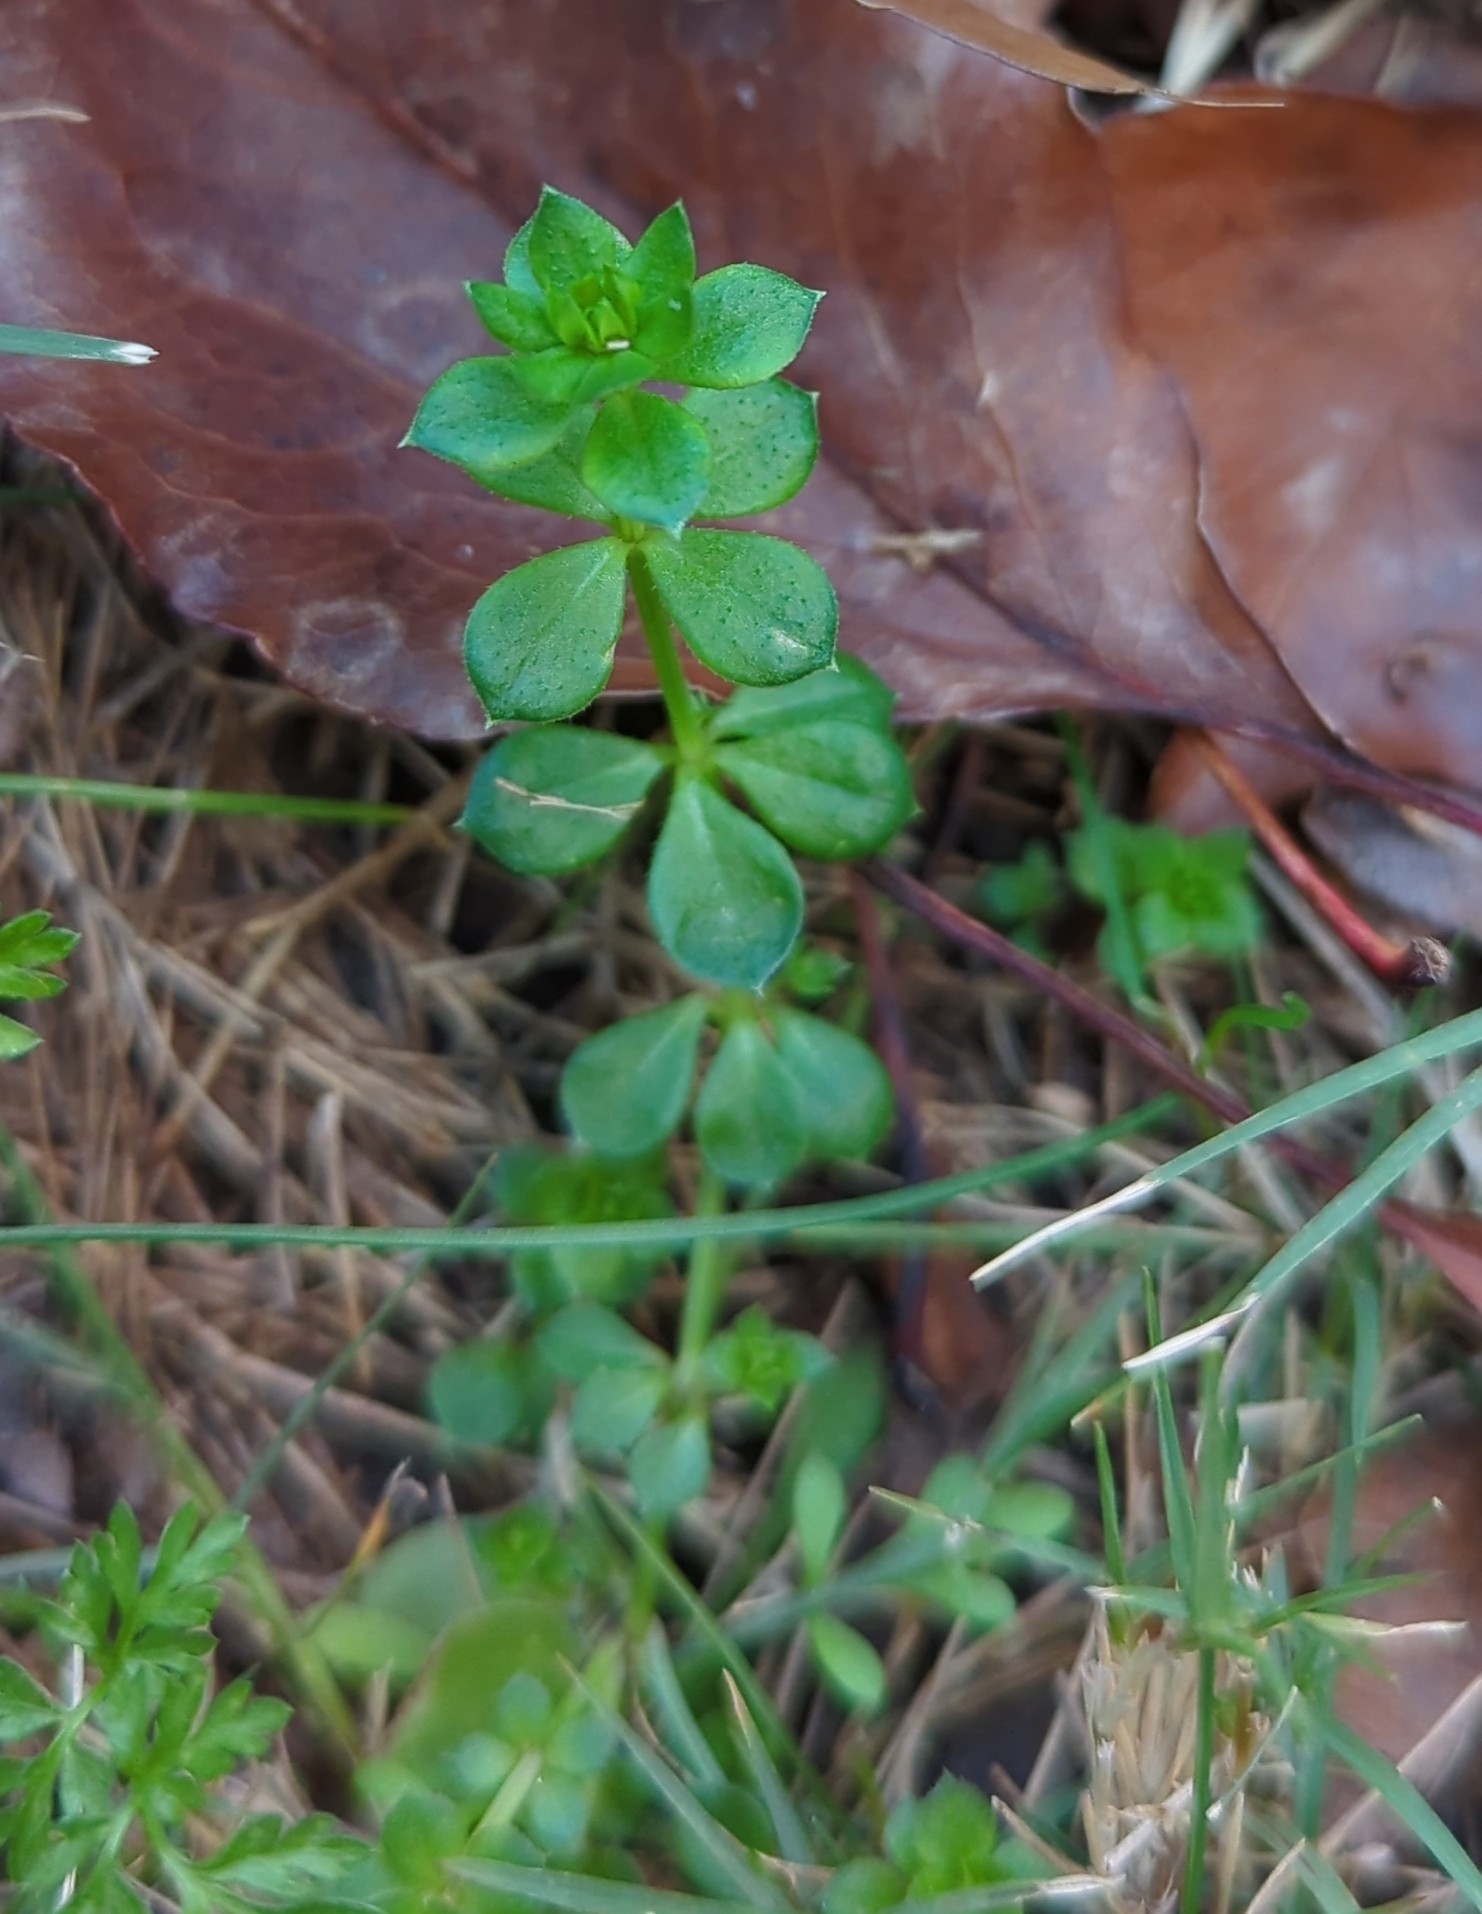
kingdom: Plantae
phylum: Tracheophyta
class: Magnoliopsida
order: Gentianales
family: Rubiaceae
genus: Sherardia
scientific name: Sherardia arvensis
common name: Field madder
